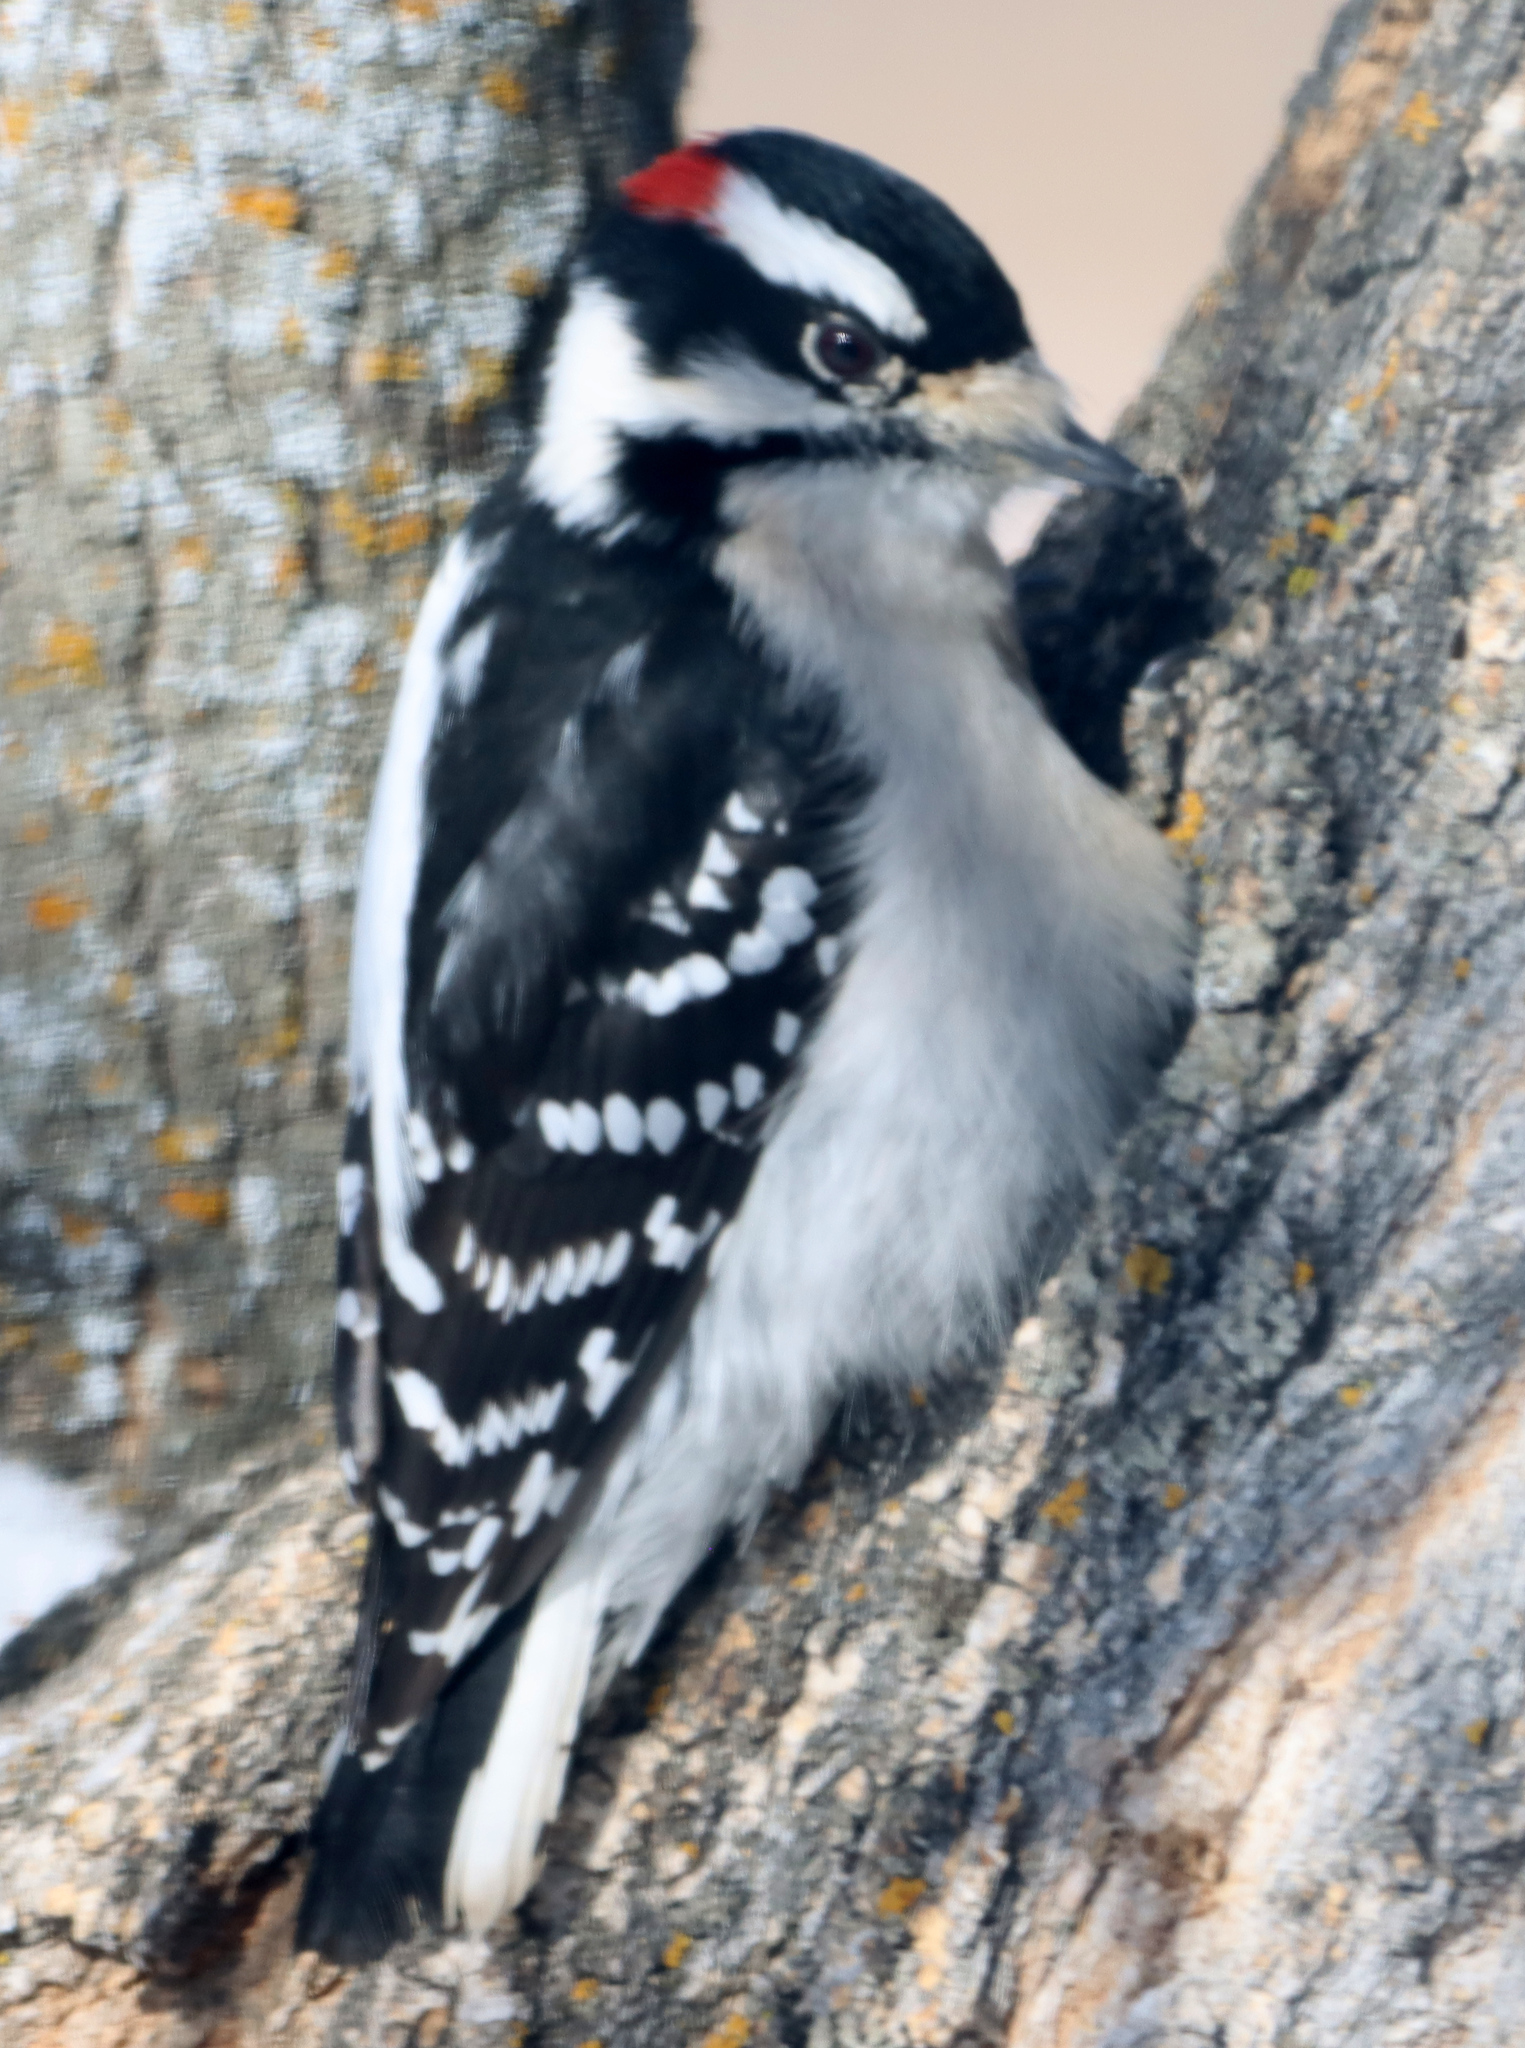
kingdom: Animalia
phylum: Chordata
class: Aves
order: Piciformes
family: Picidae
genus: Dryobates
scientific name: Dryobates pubescens
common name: Downy woodpecker
